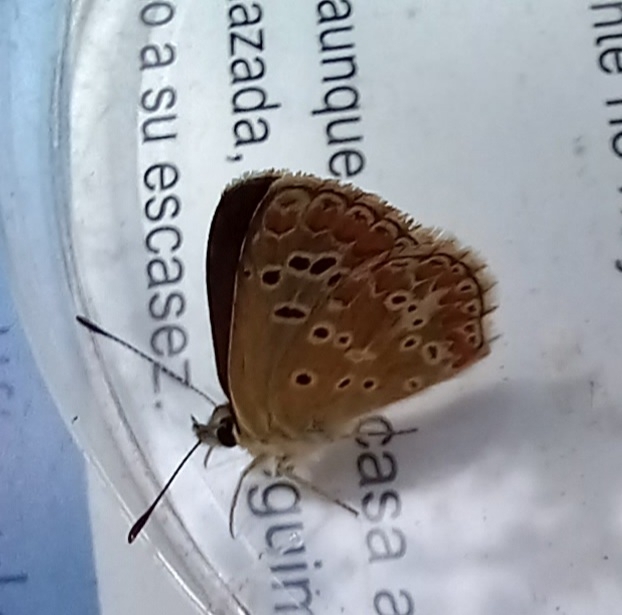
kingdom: Animalia
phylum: Arthropoda
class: Insecta
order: Lepidoptera
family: Lycaenidae
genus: Aricia
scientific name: Aricia cramera
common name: Eschscholtz´s brown  argus
